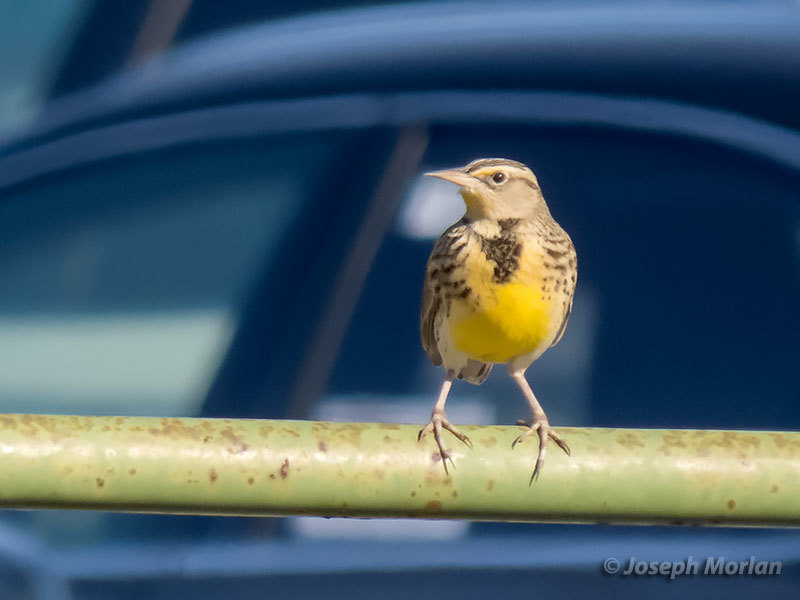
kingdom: Animalia
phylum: Chordata
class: Aves
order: Passeriformes
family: Icteridae
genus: Sturnella
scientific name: Sturnella neglecta
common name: Western meadowlark
